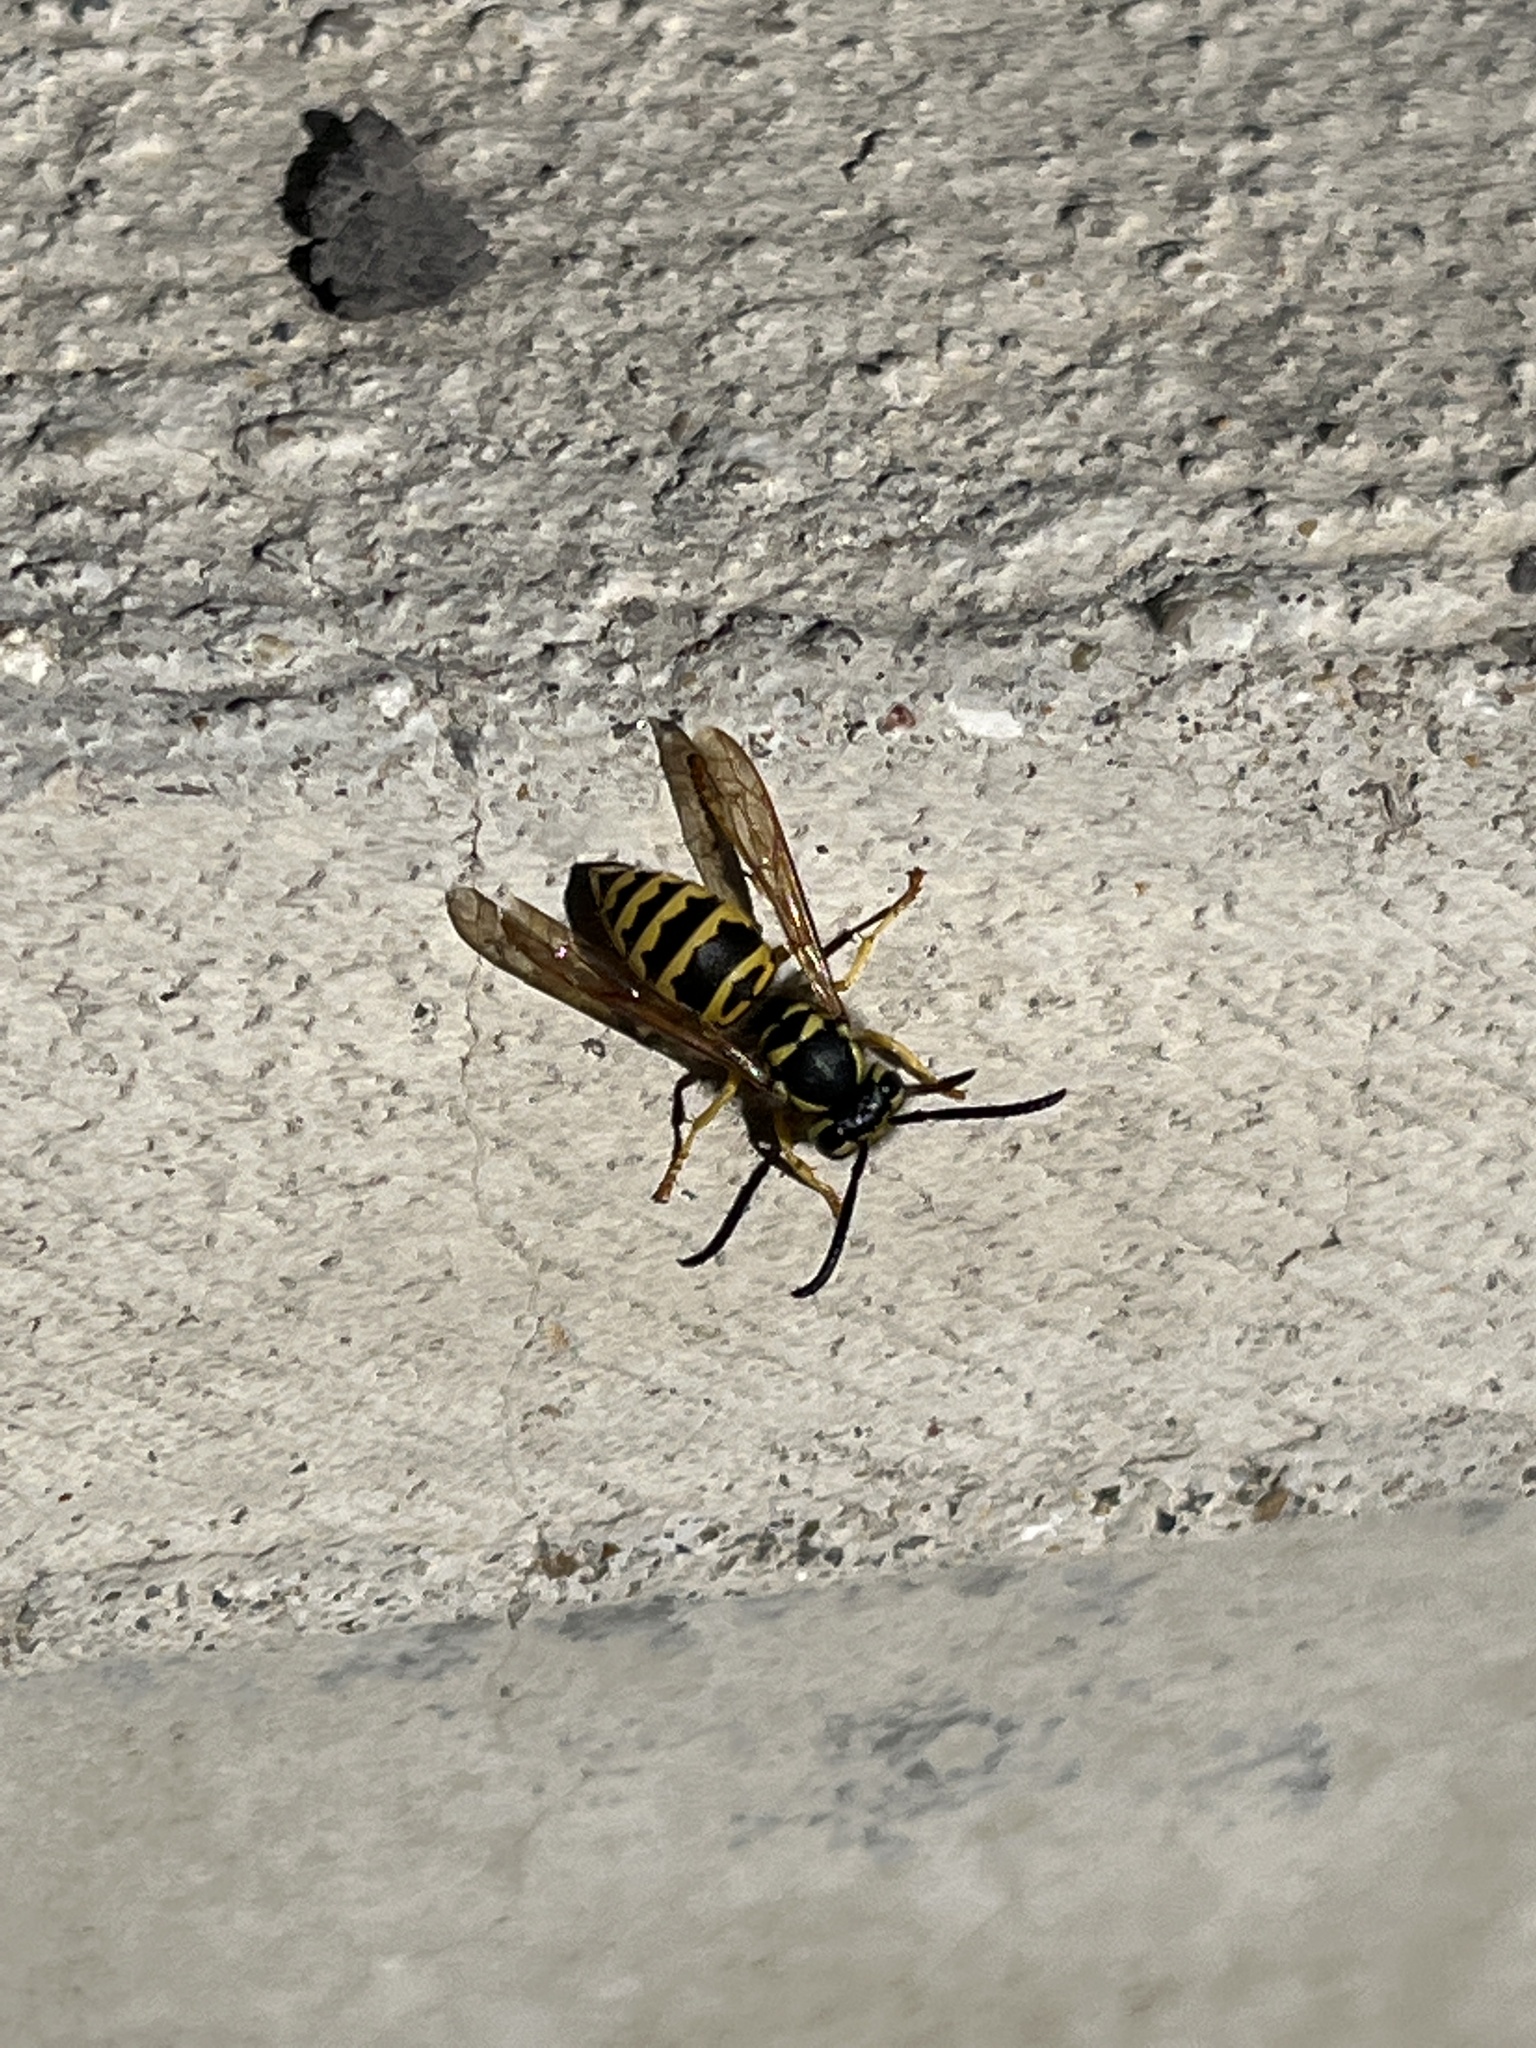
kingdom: Animalia
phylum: Arthropoda
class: Insecta
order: Hymenoptera
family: Vespidae
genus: Vespula
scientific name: Vespula maculifrons
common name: Eastern yellowjacket
